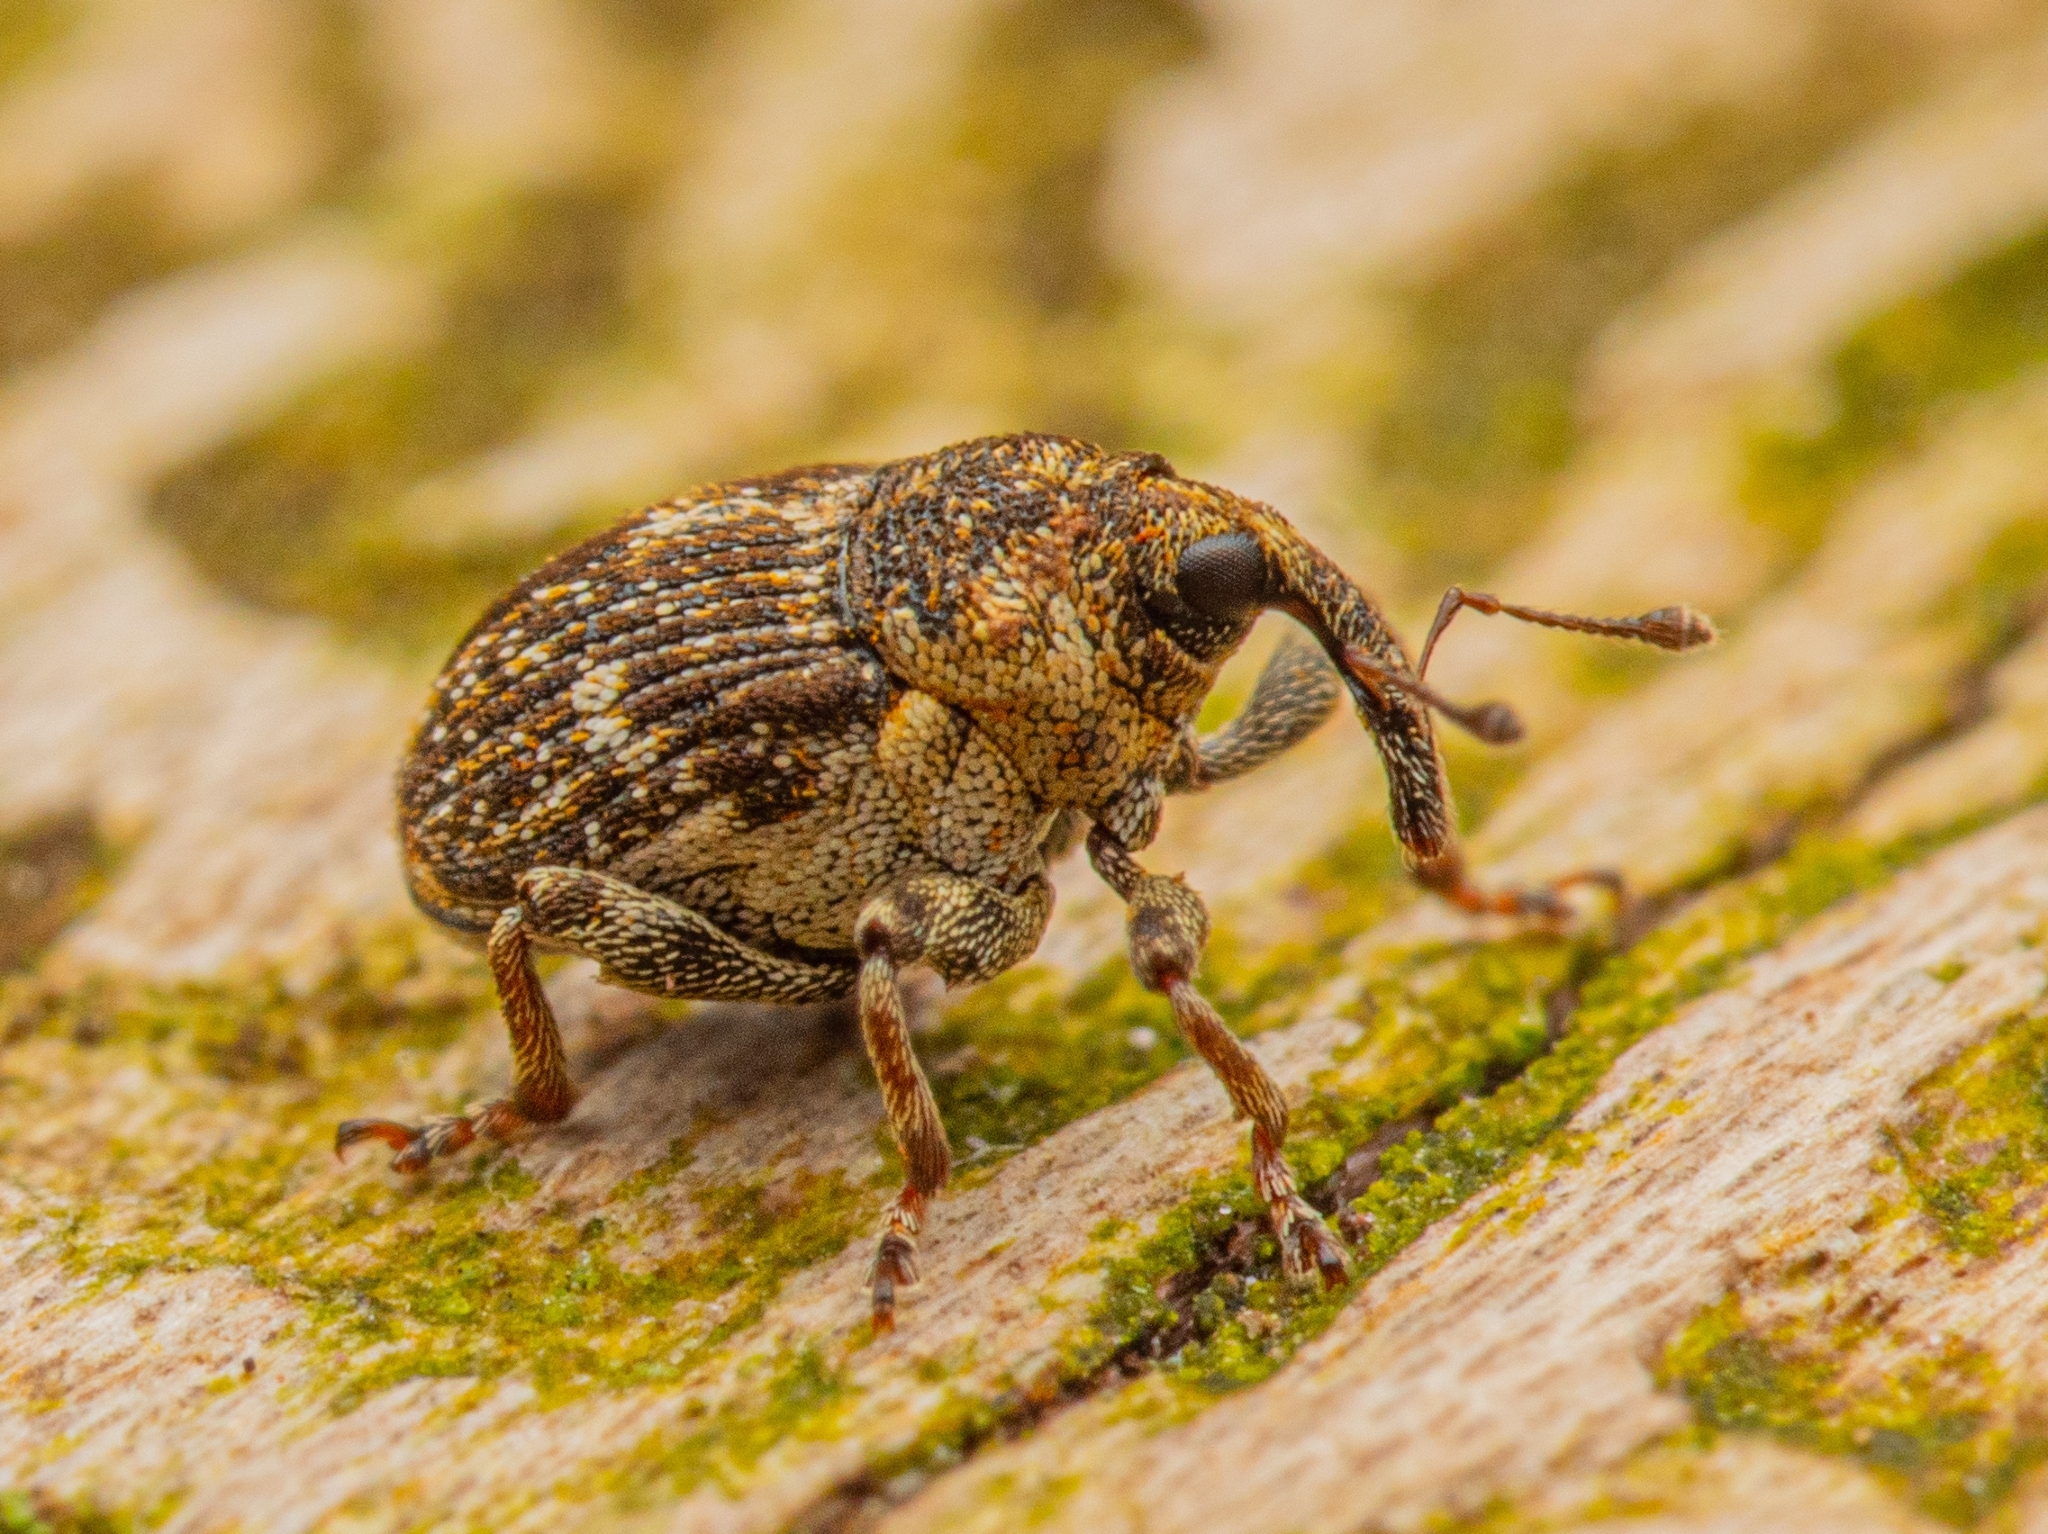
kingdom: Animalia
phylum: Arthropoda
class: Insecta
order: Coleoptera
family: Curculionidae
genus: Nedyus
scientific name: Nedyus quadrimaculatus
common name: Small nettle weevil
